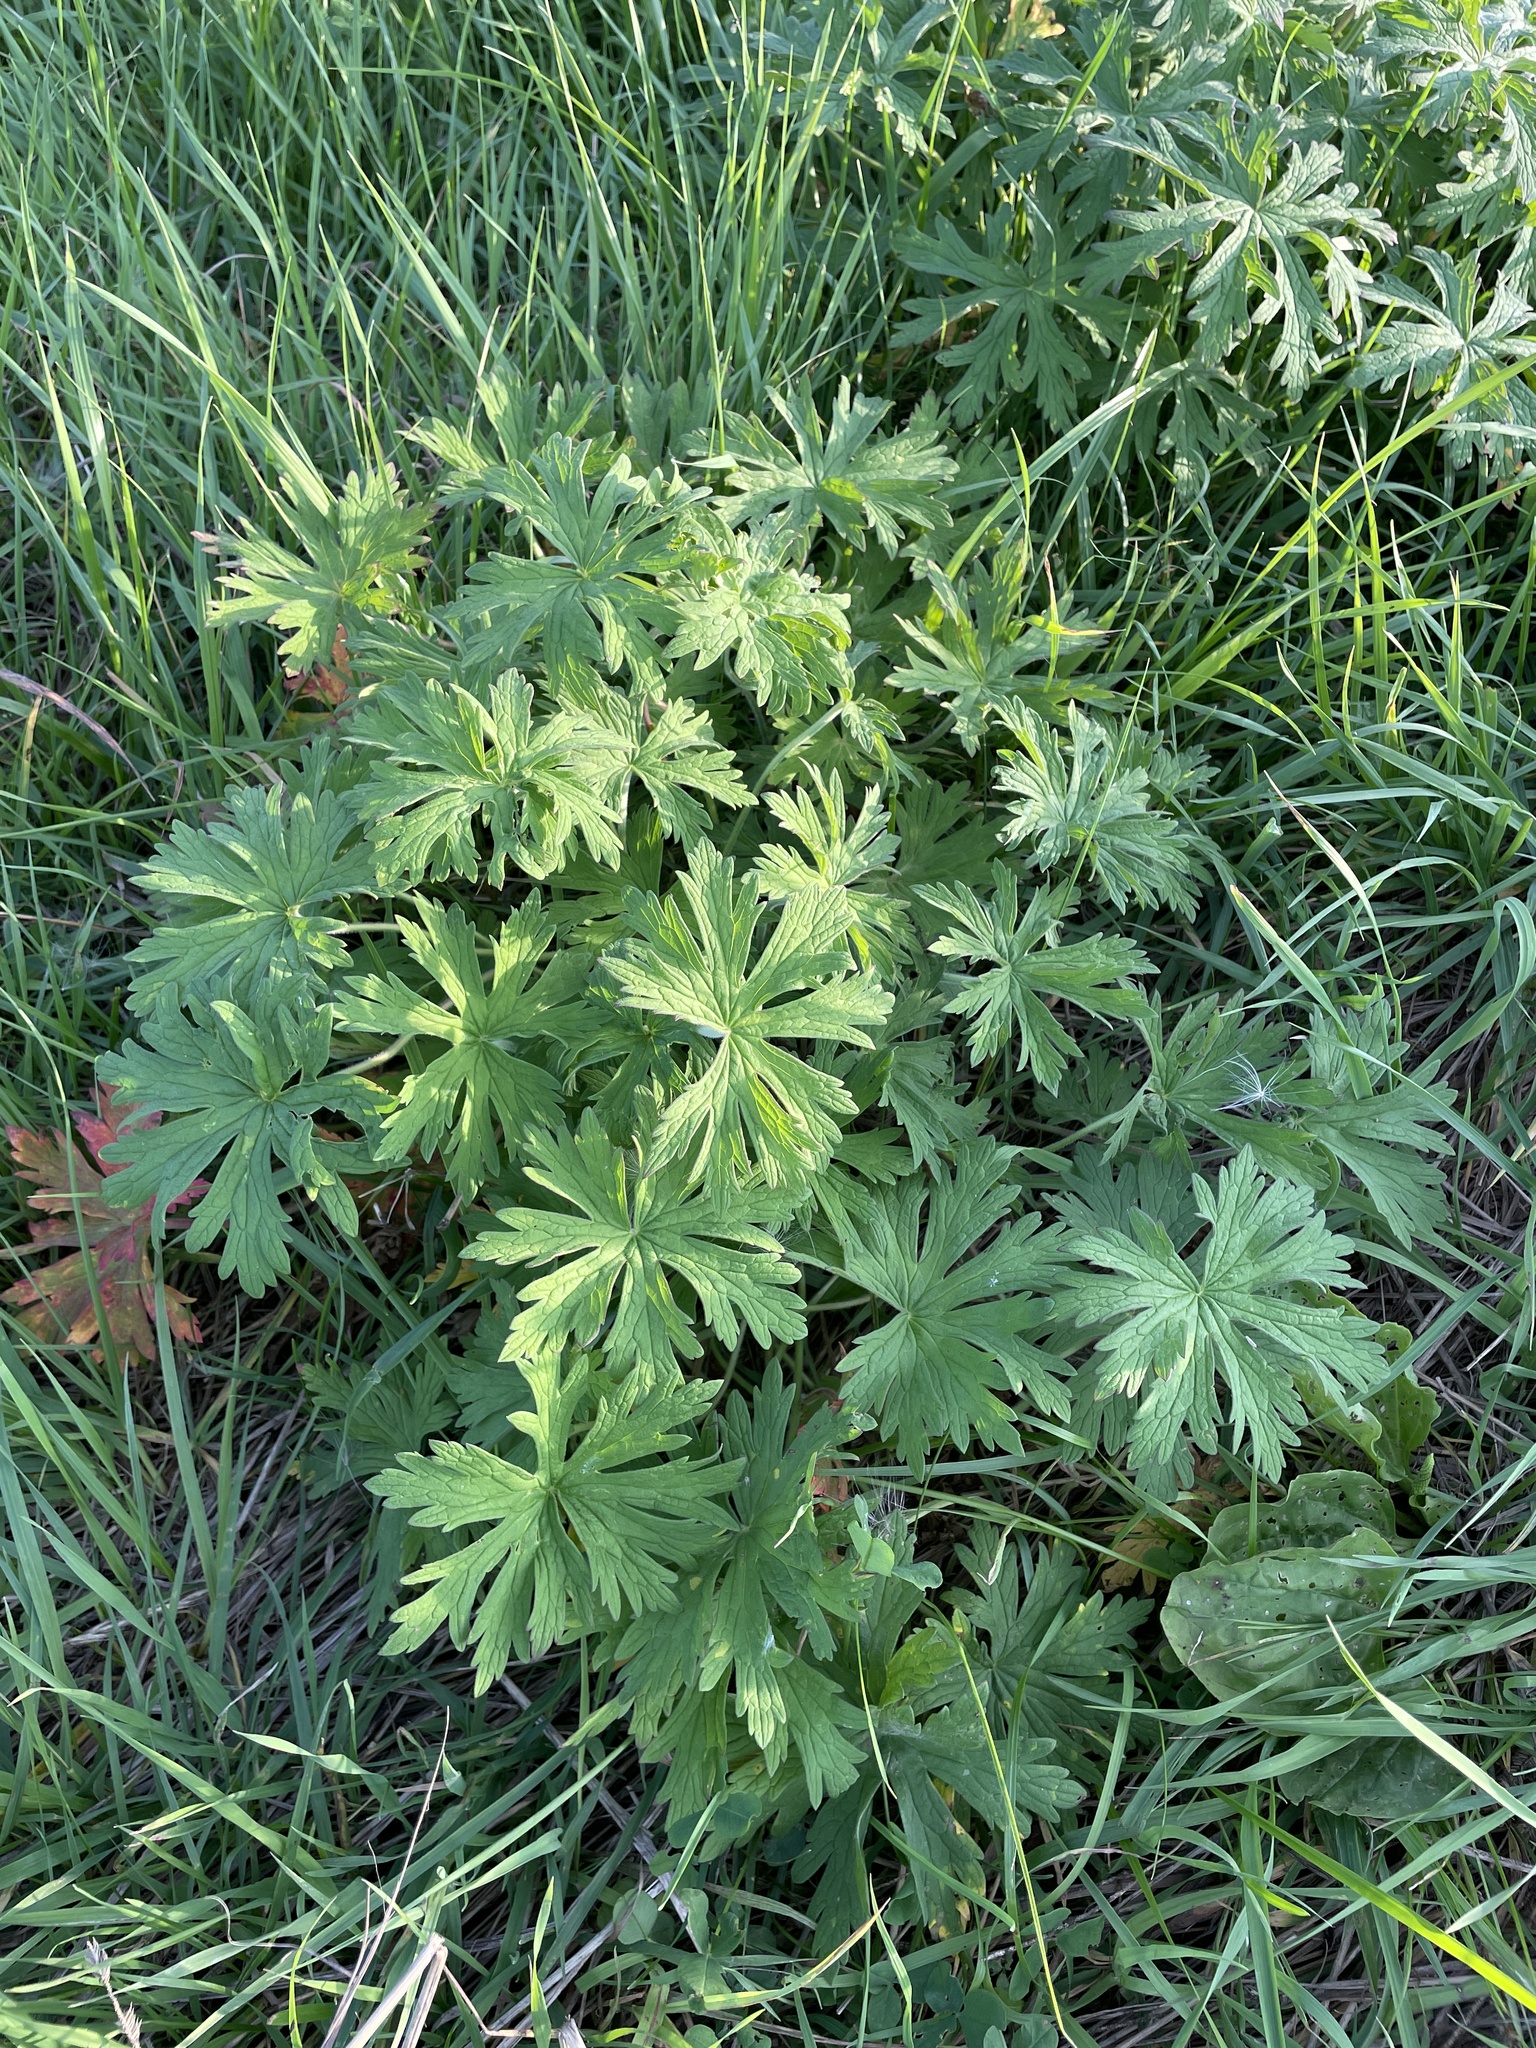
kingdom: Plantae
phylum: Tracheophyta
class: Magnoliopsida
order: Geraniales
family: Geraniaceae
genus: Geranium
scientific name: Geranium pratense
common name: Meadow crane's-bill
